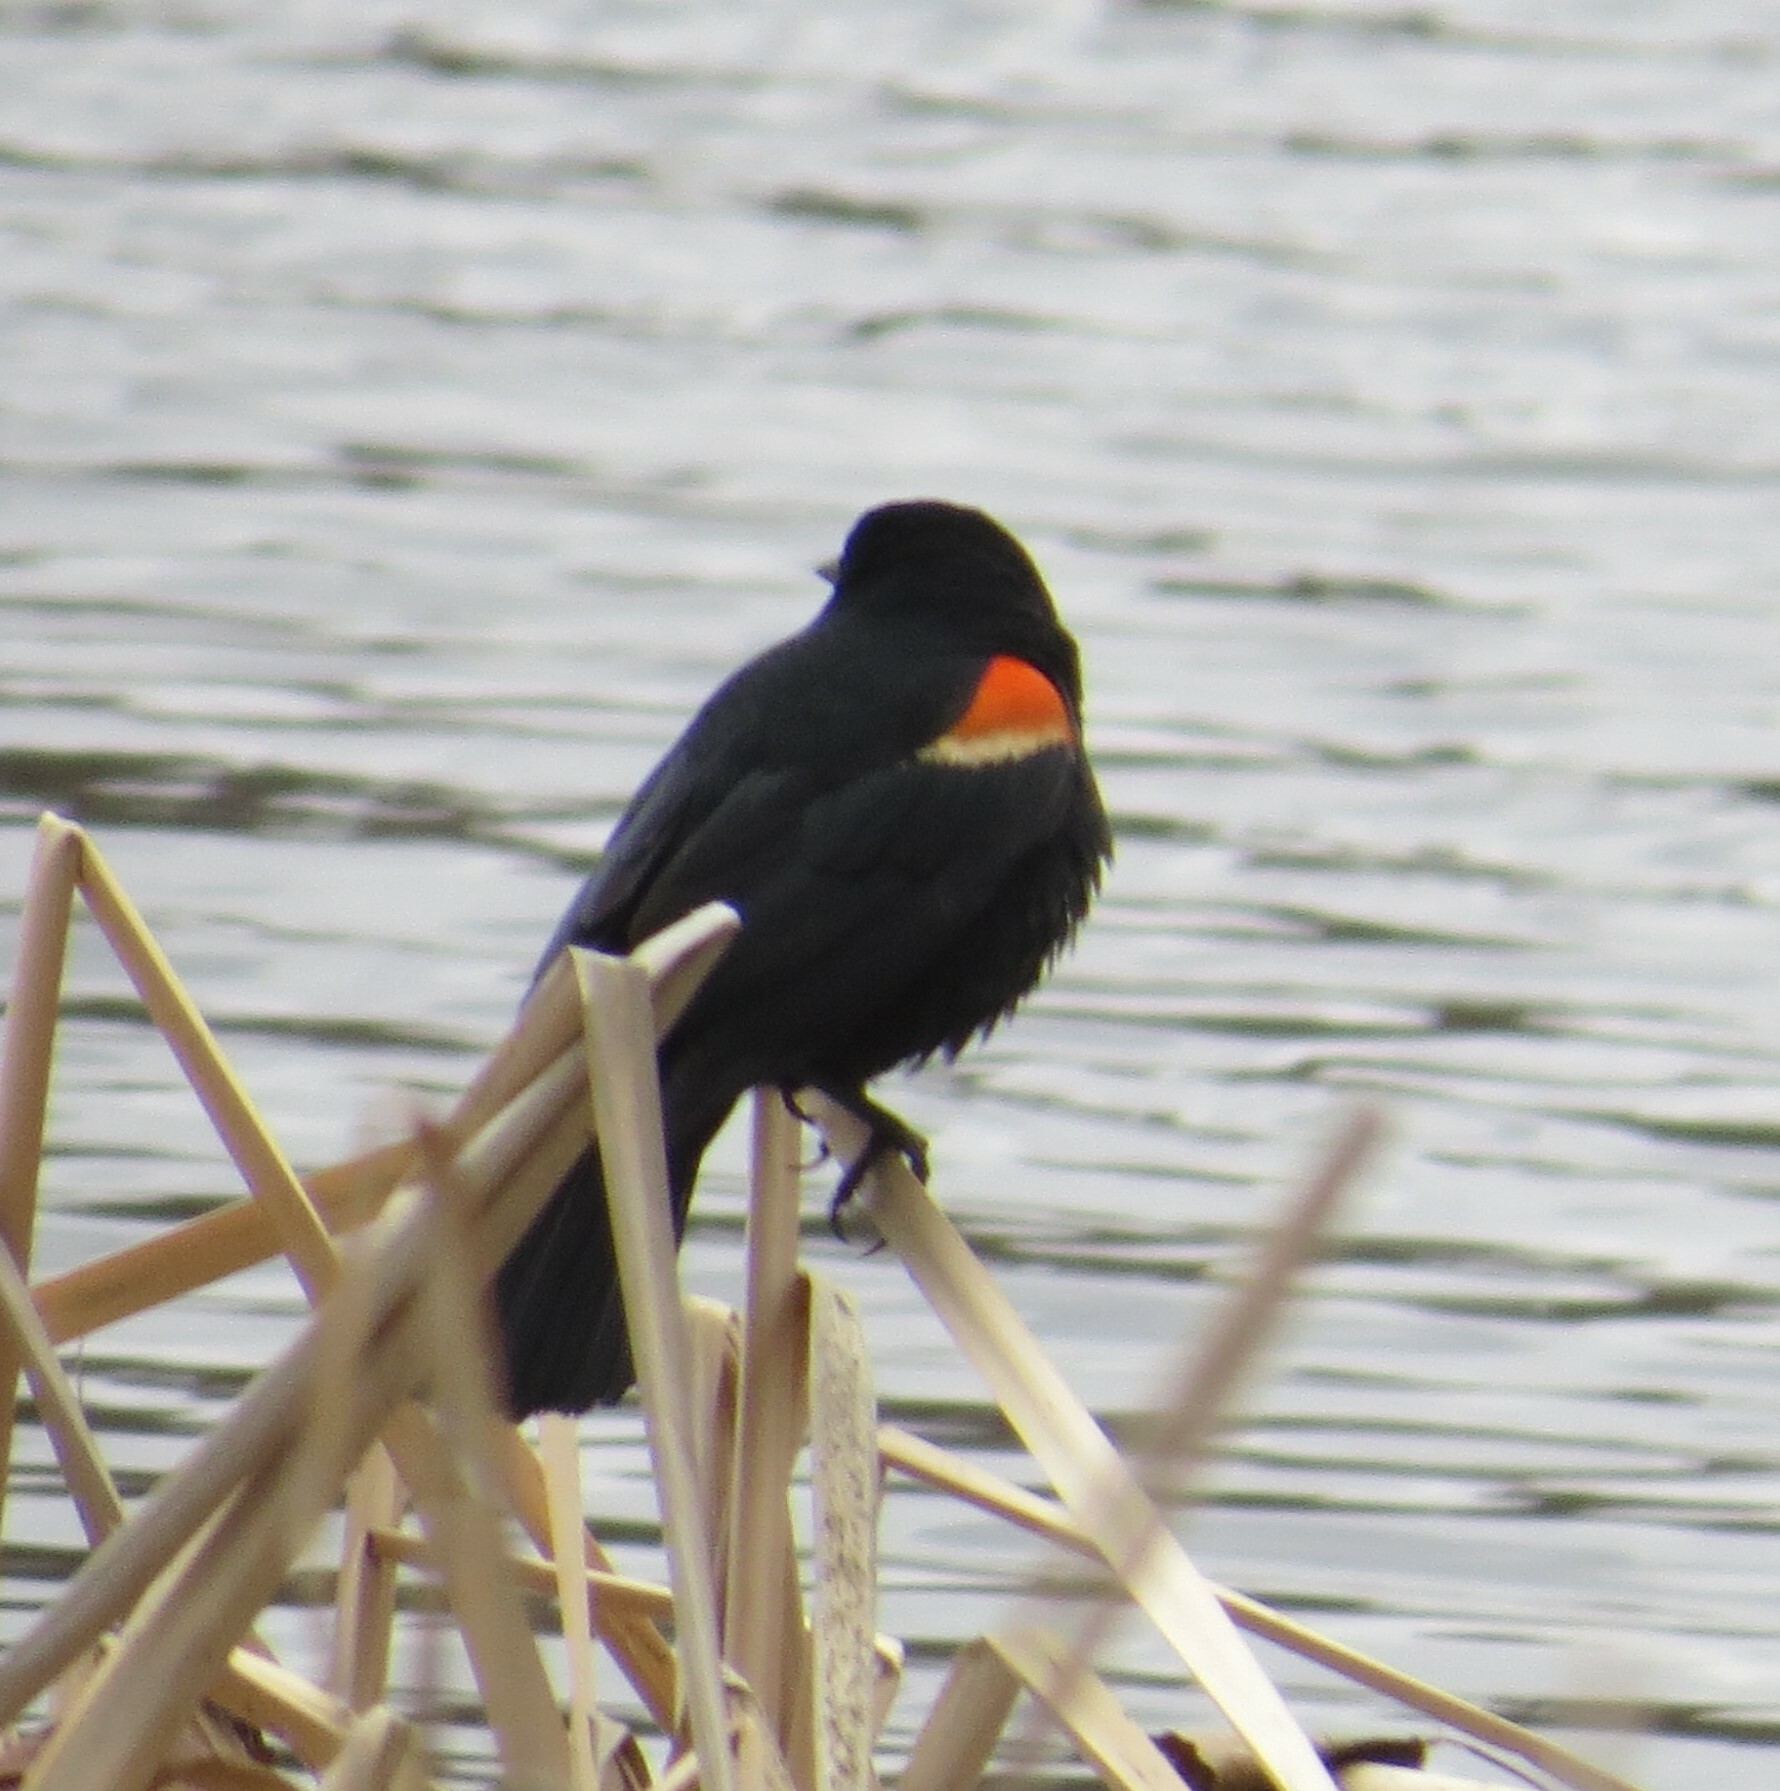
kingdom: Animalia
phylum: Chordata
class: Aves
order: Passeriformes
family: Icteridae
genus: Agelaius
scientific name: Agelaius phoeniceus
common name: Red-winged blackbird
